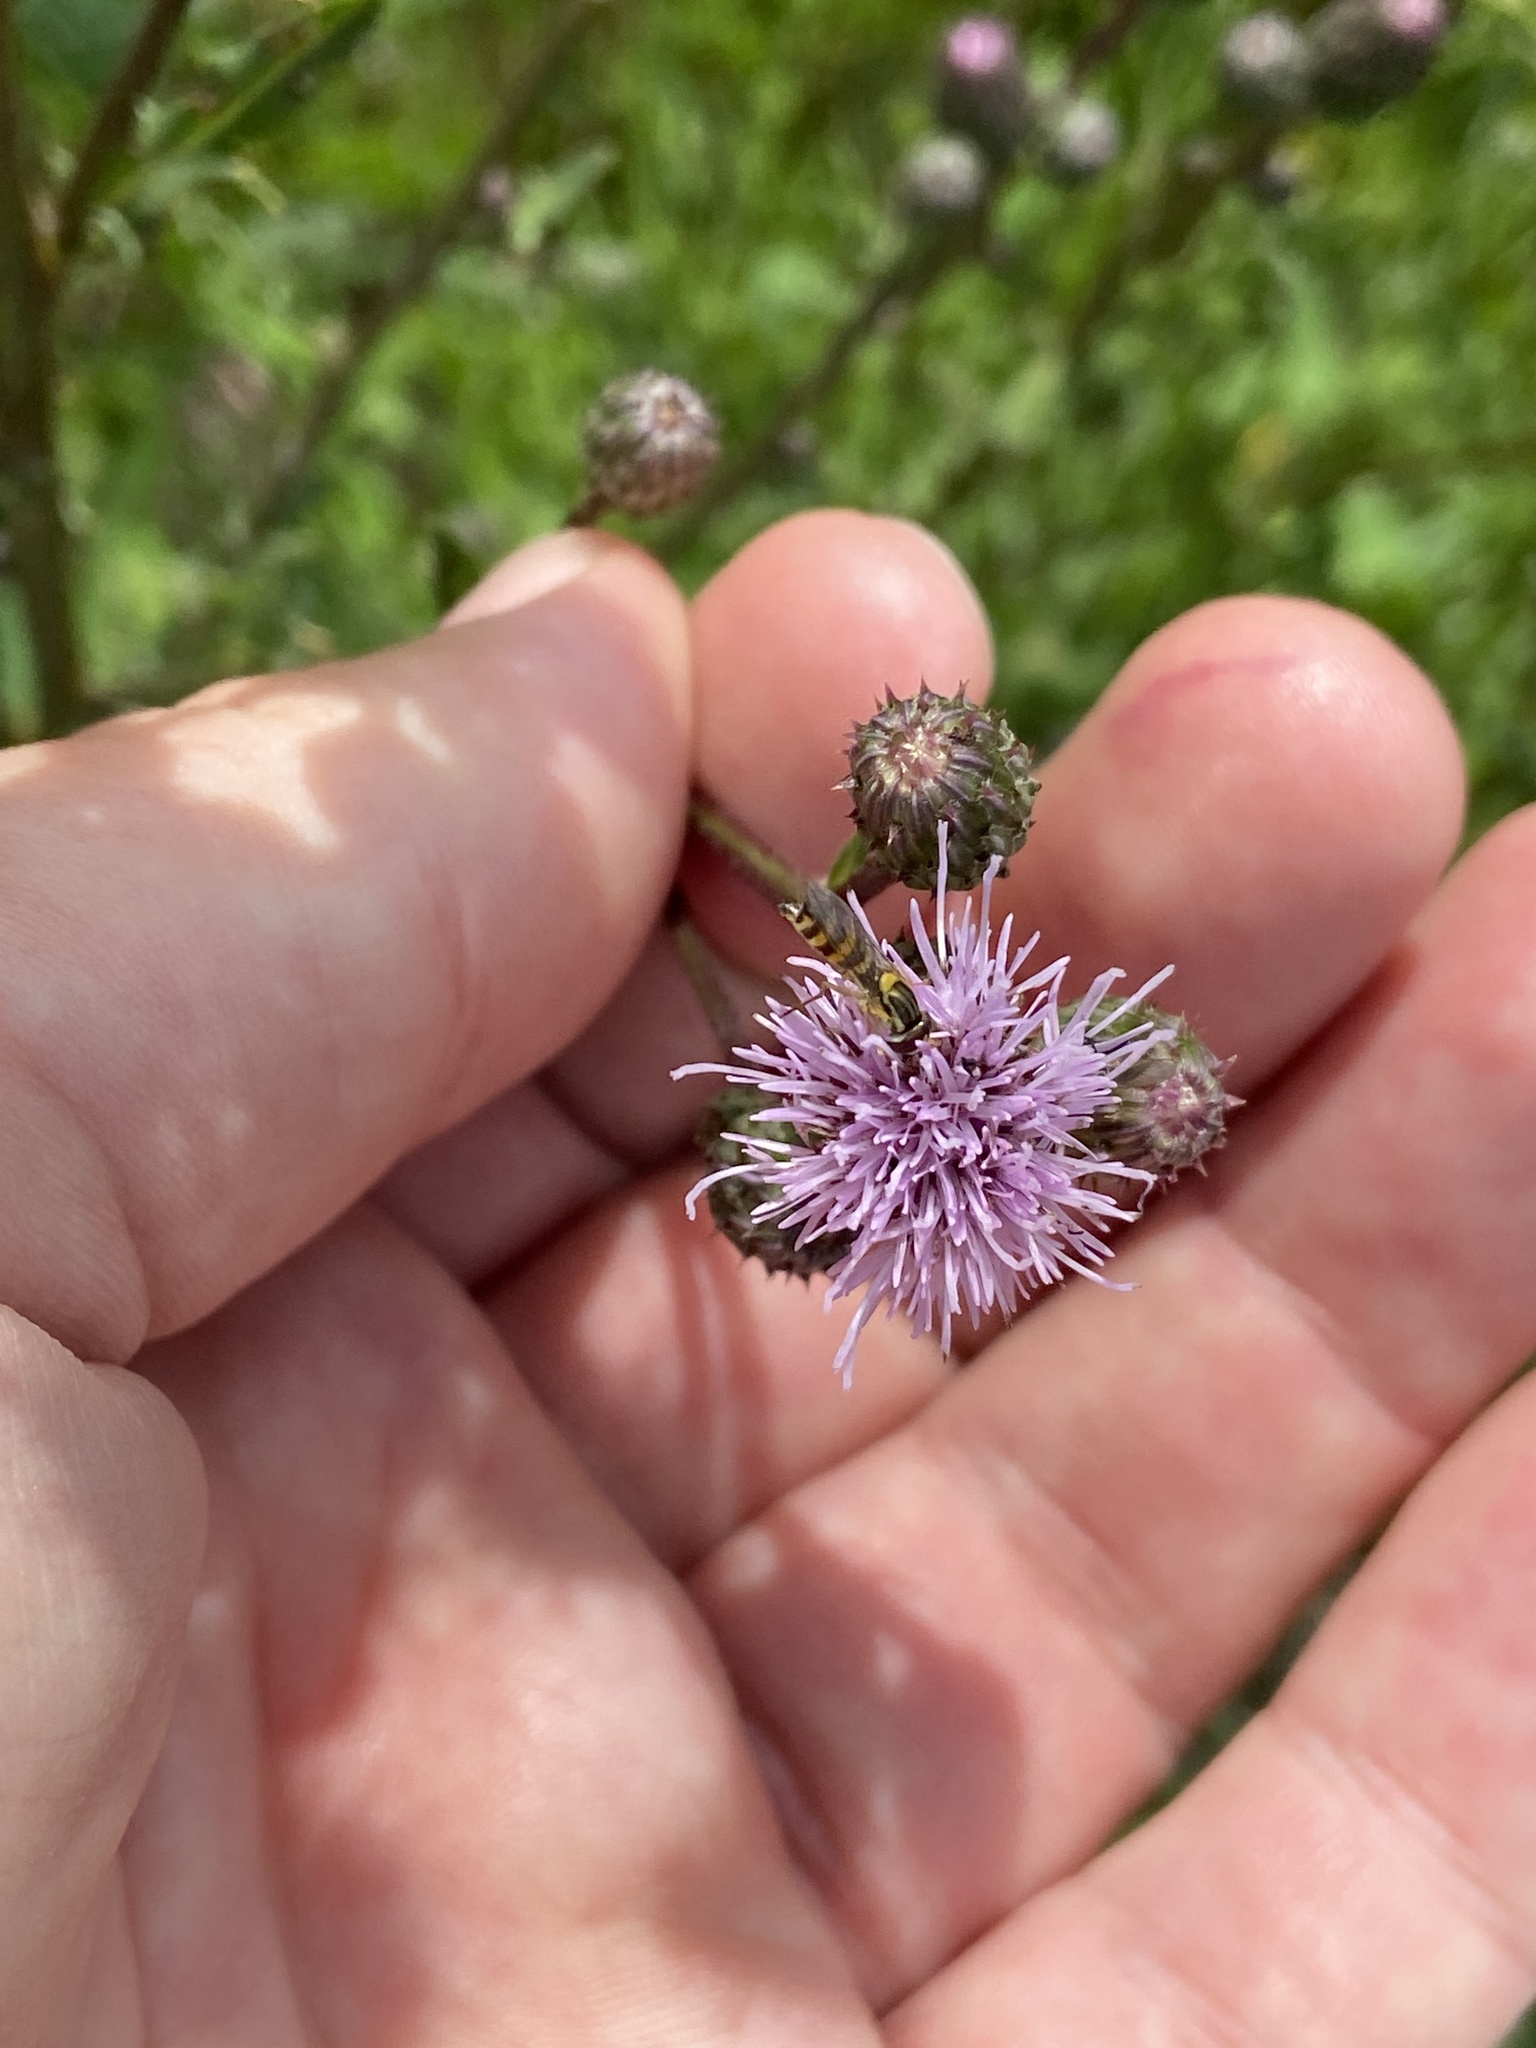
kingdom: Animalia
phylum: Arthropoda
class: Insecta
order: Diptera
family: Syrphidae
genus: Sphaerophoria
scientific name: Sphaerophoria
